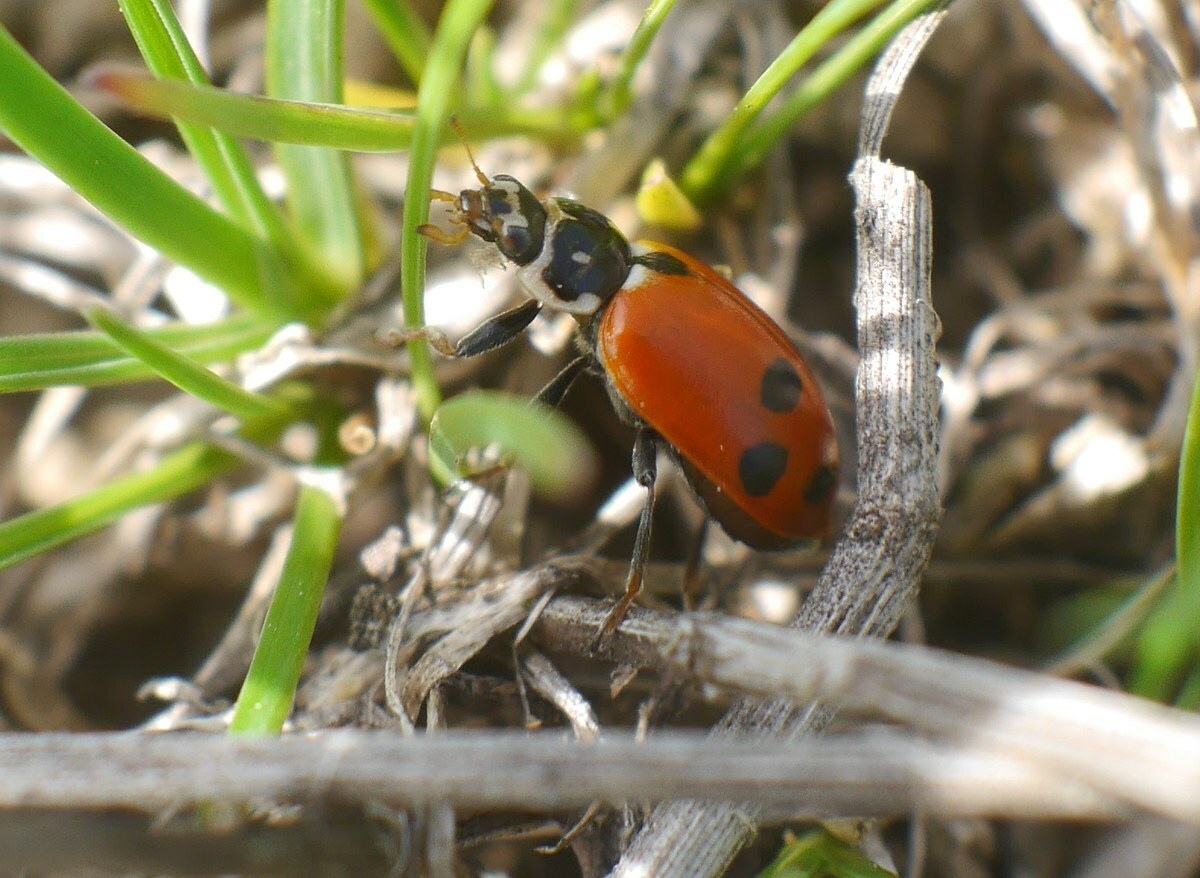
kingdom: Animalia
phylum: Arthropoda
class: Insecta
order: Coleoptera
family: Coccinellidae
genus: Hippodamia
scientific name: Hippodamia variegata
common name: Ladybird beetle
